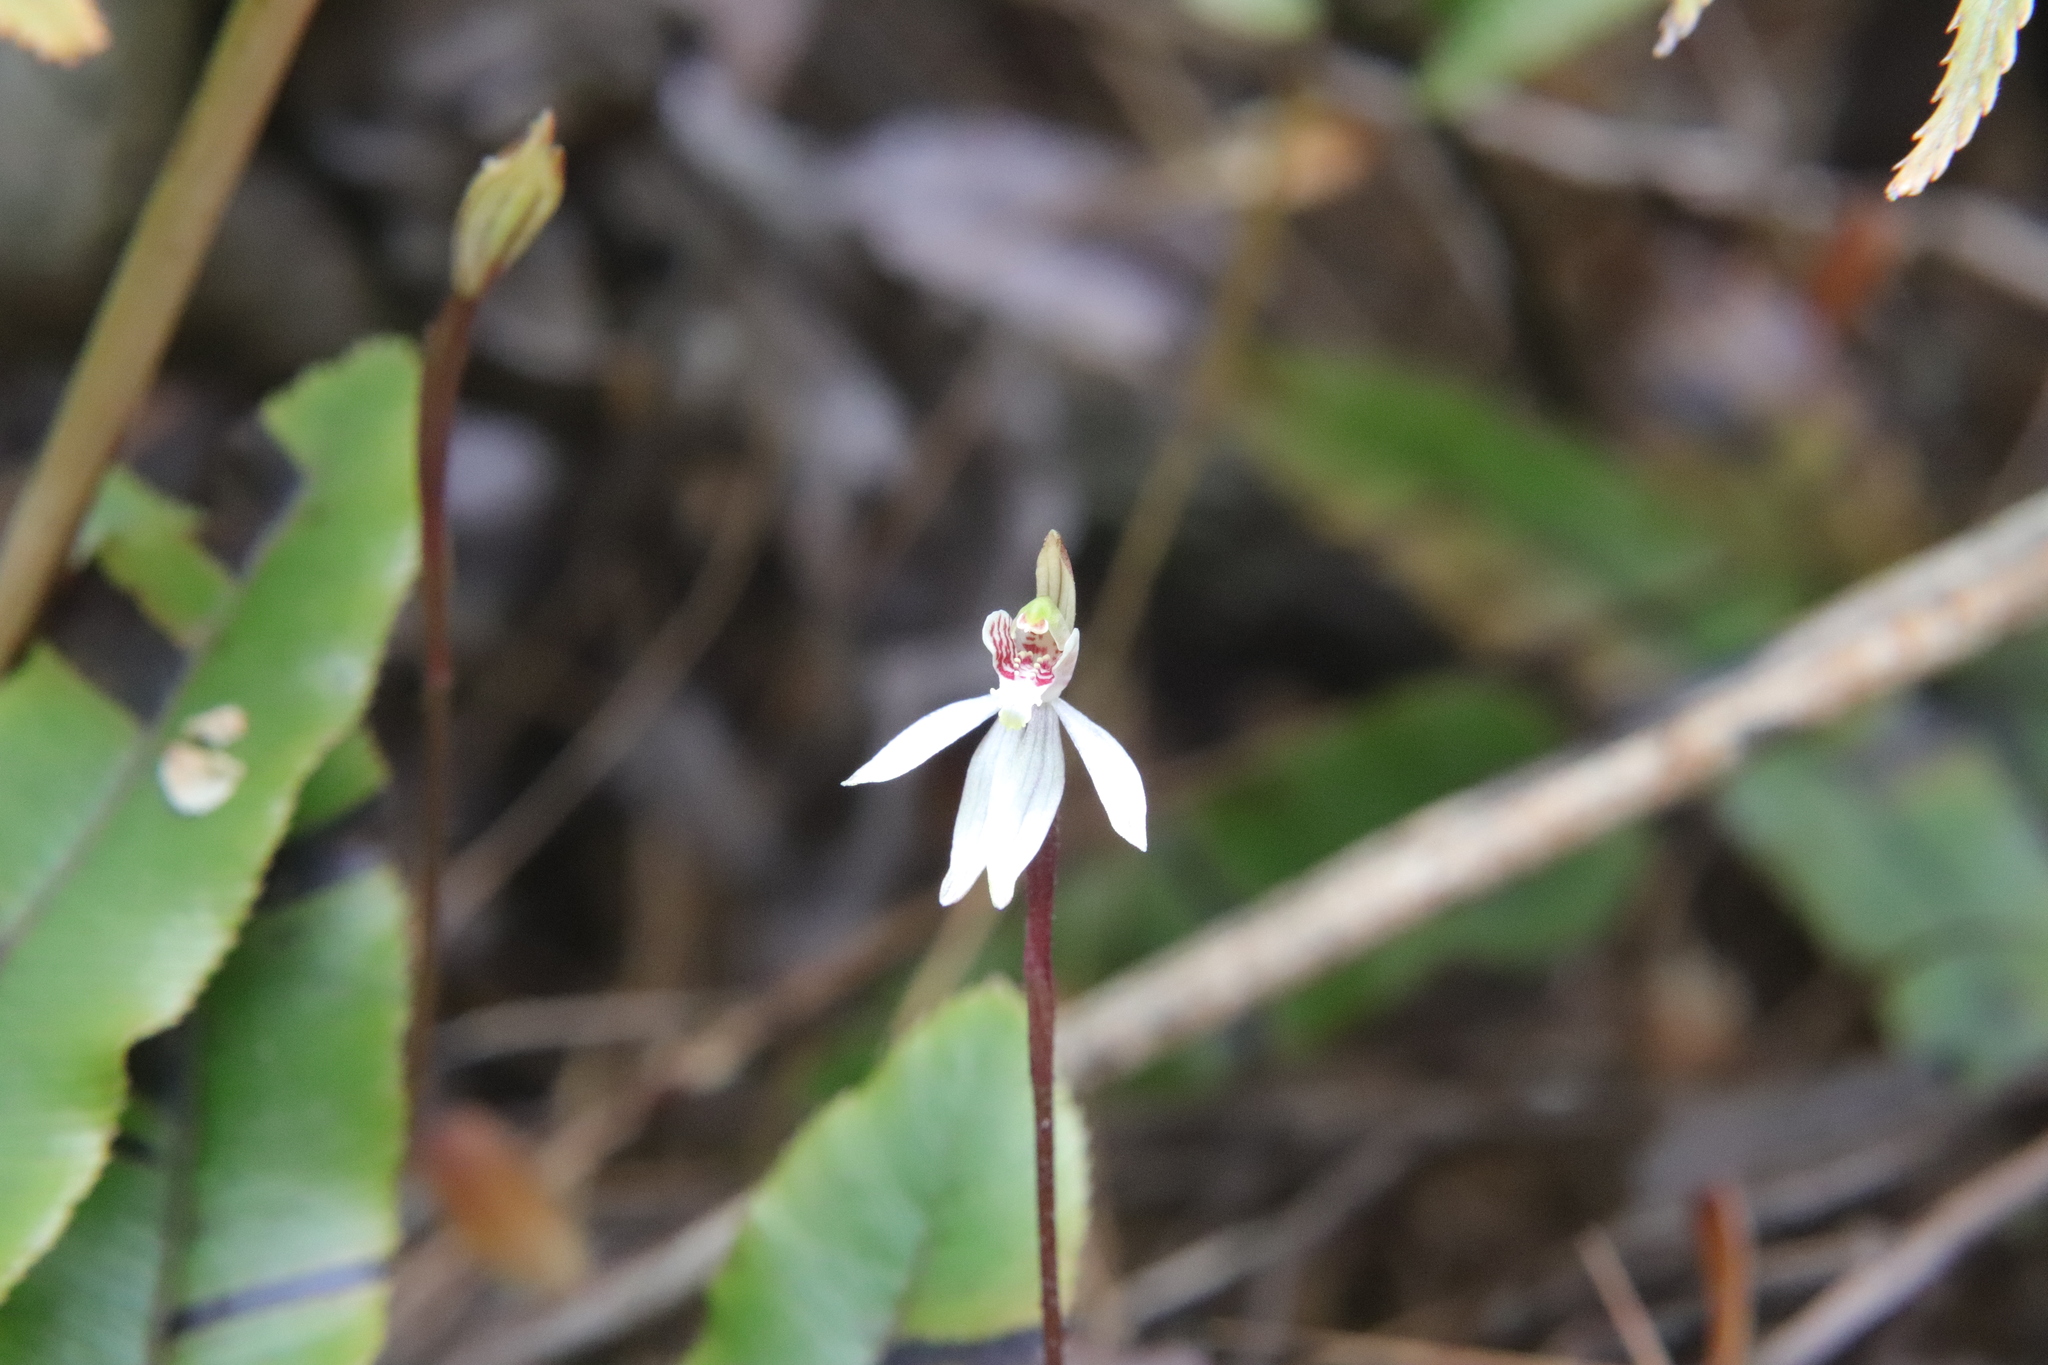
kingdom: Plantae
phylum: Tracheophyta
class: Liliopsida
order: Asparagales
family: Orchidaceae
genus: Caladenia
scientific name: Caladenia chlorostyla
